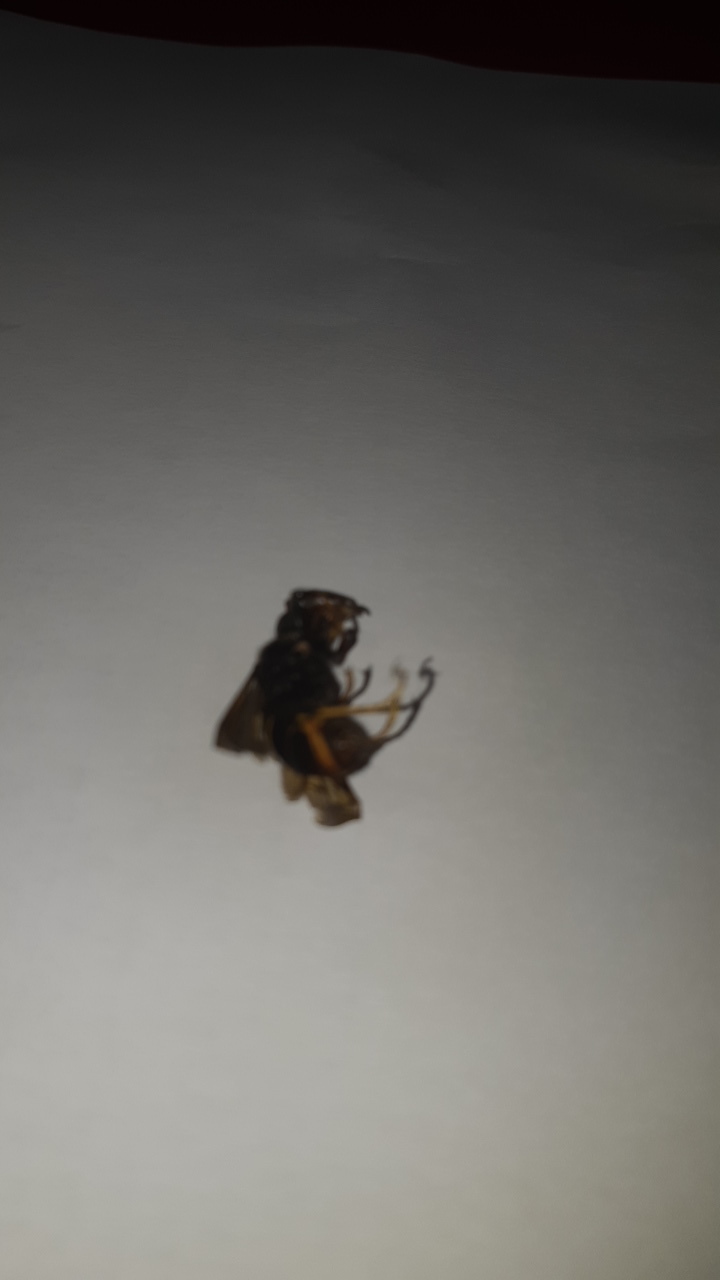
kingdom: Animalia
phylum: Arthropoda
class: Insecta
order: Hymenoptera
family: Vespidae
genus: Vespa
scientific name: Vespa velutina
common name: Asian hornet
